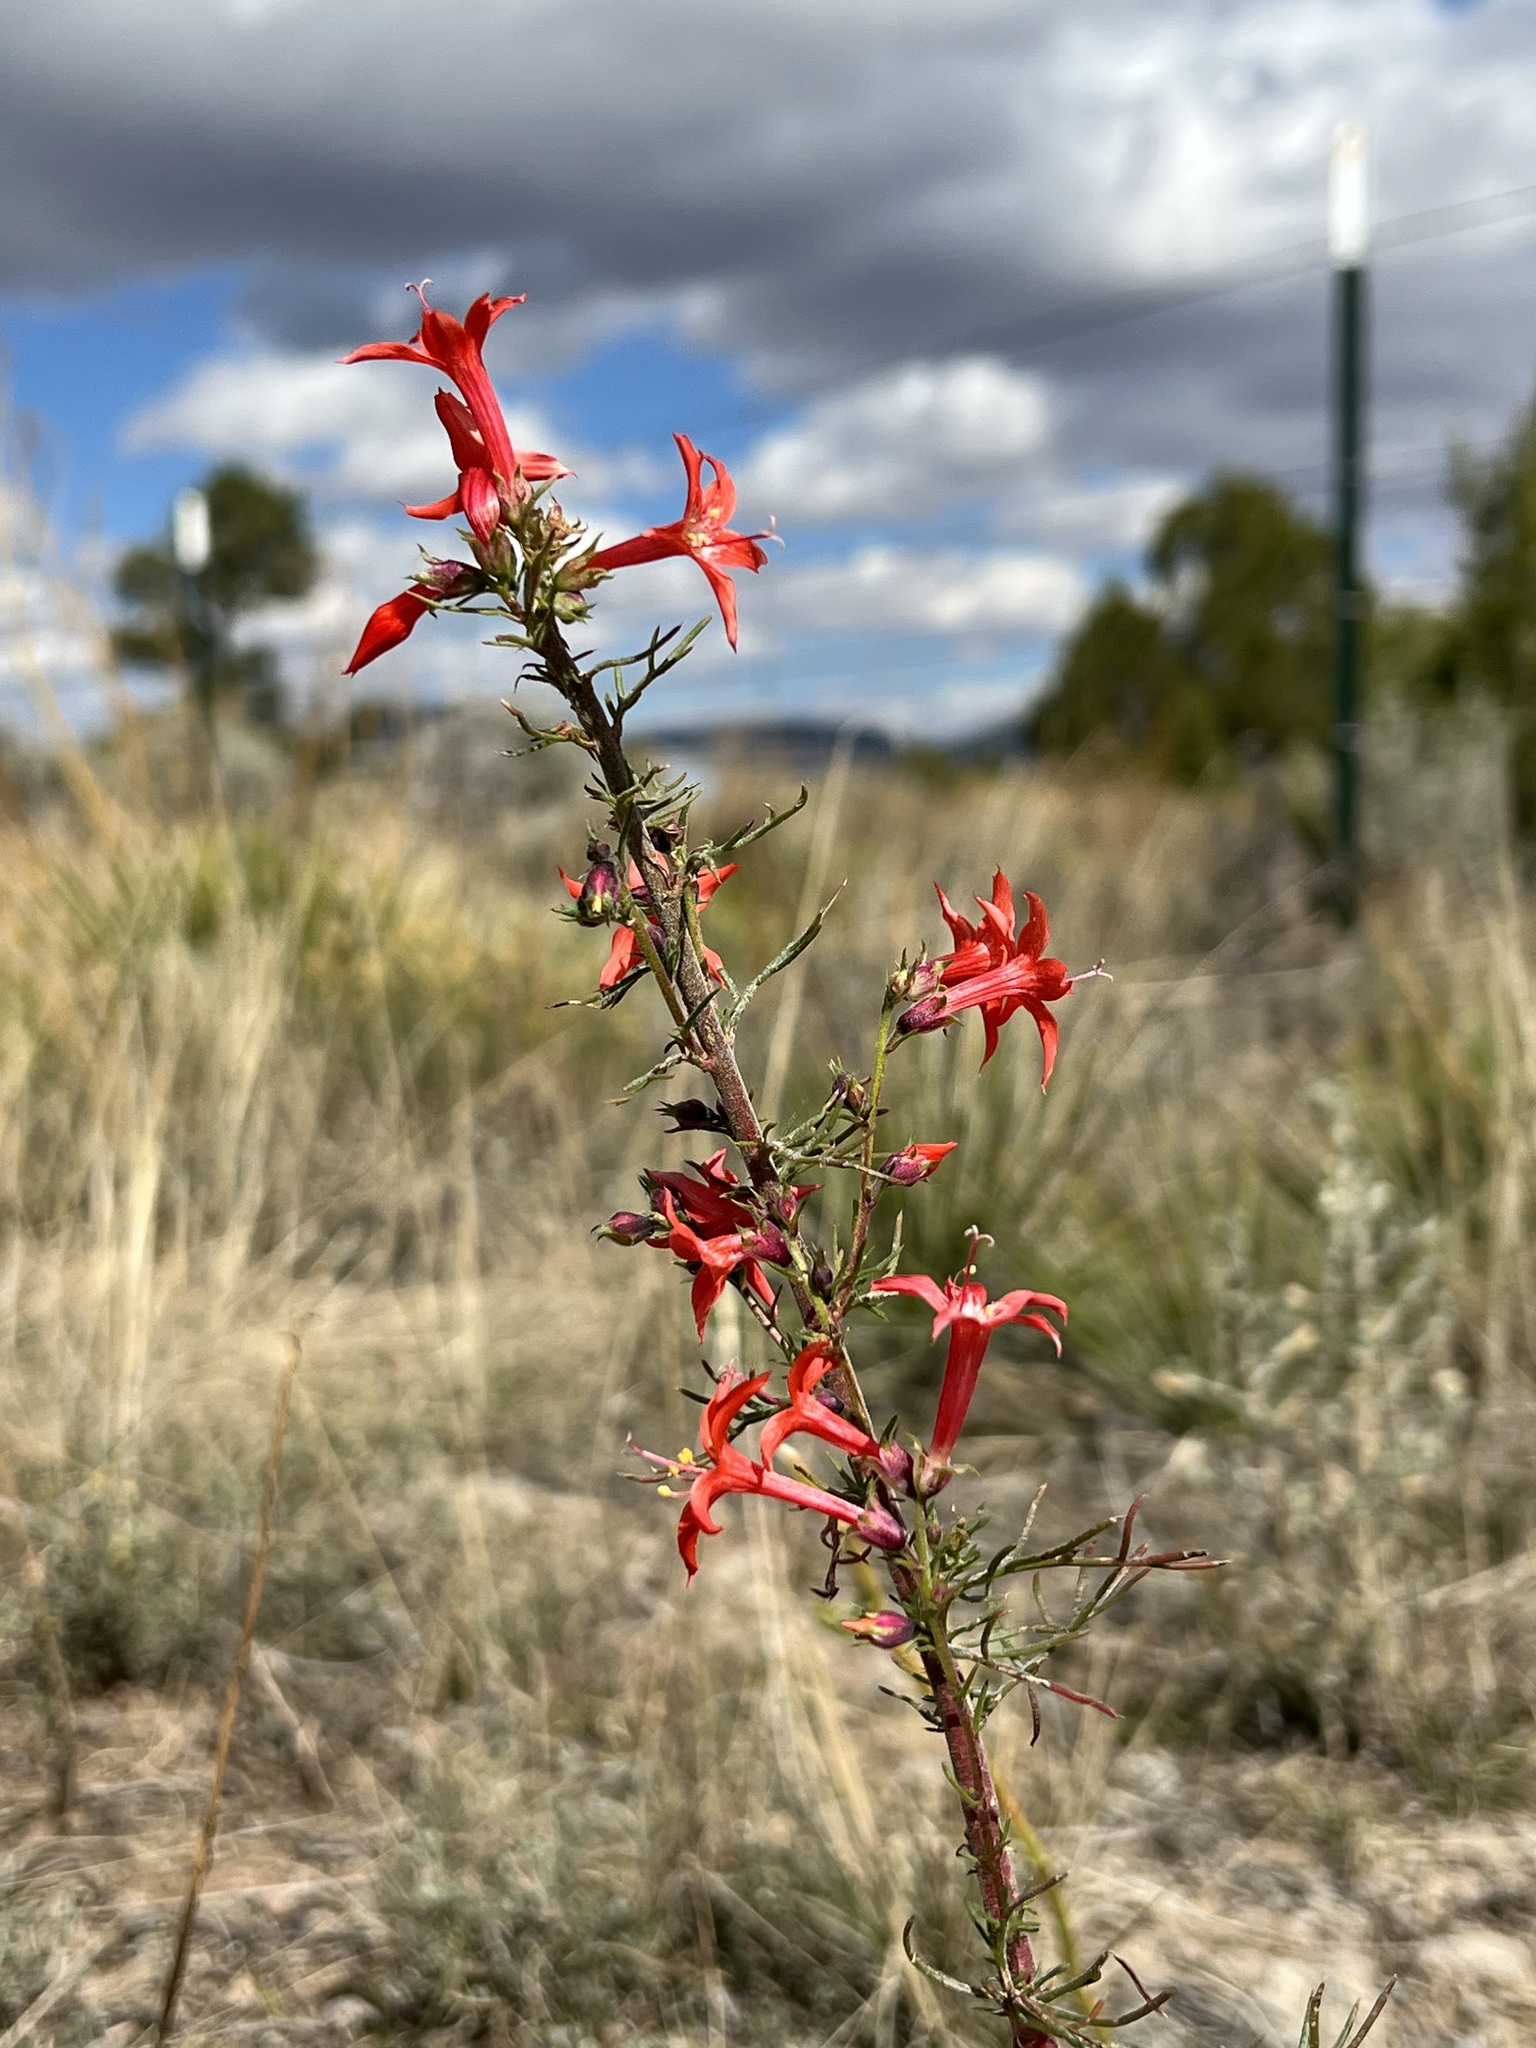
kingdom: Plantae
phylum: Tracheophyta
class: Magnoliopsida
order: Ericales
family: Polemoniaceae
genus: Ipomopsis
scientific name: Ipomopsis aggregata
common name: Scarlet gilia
